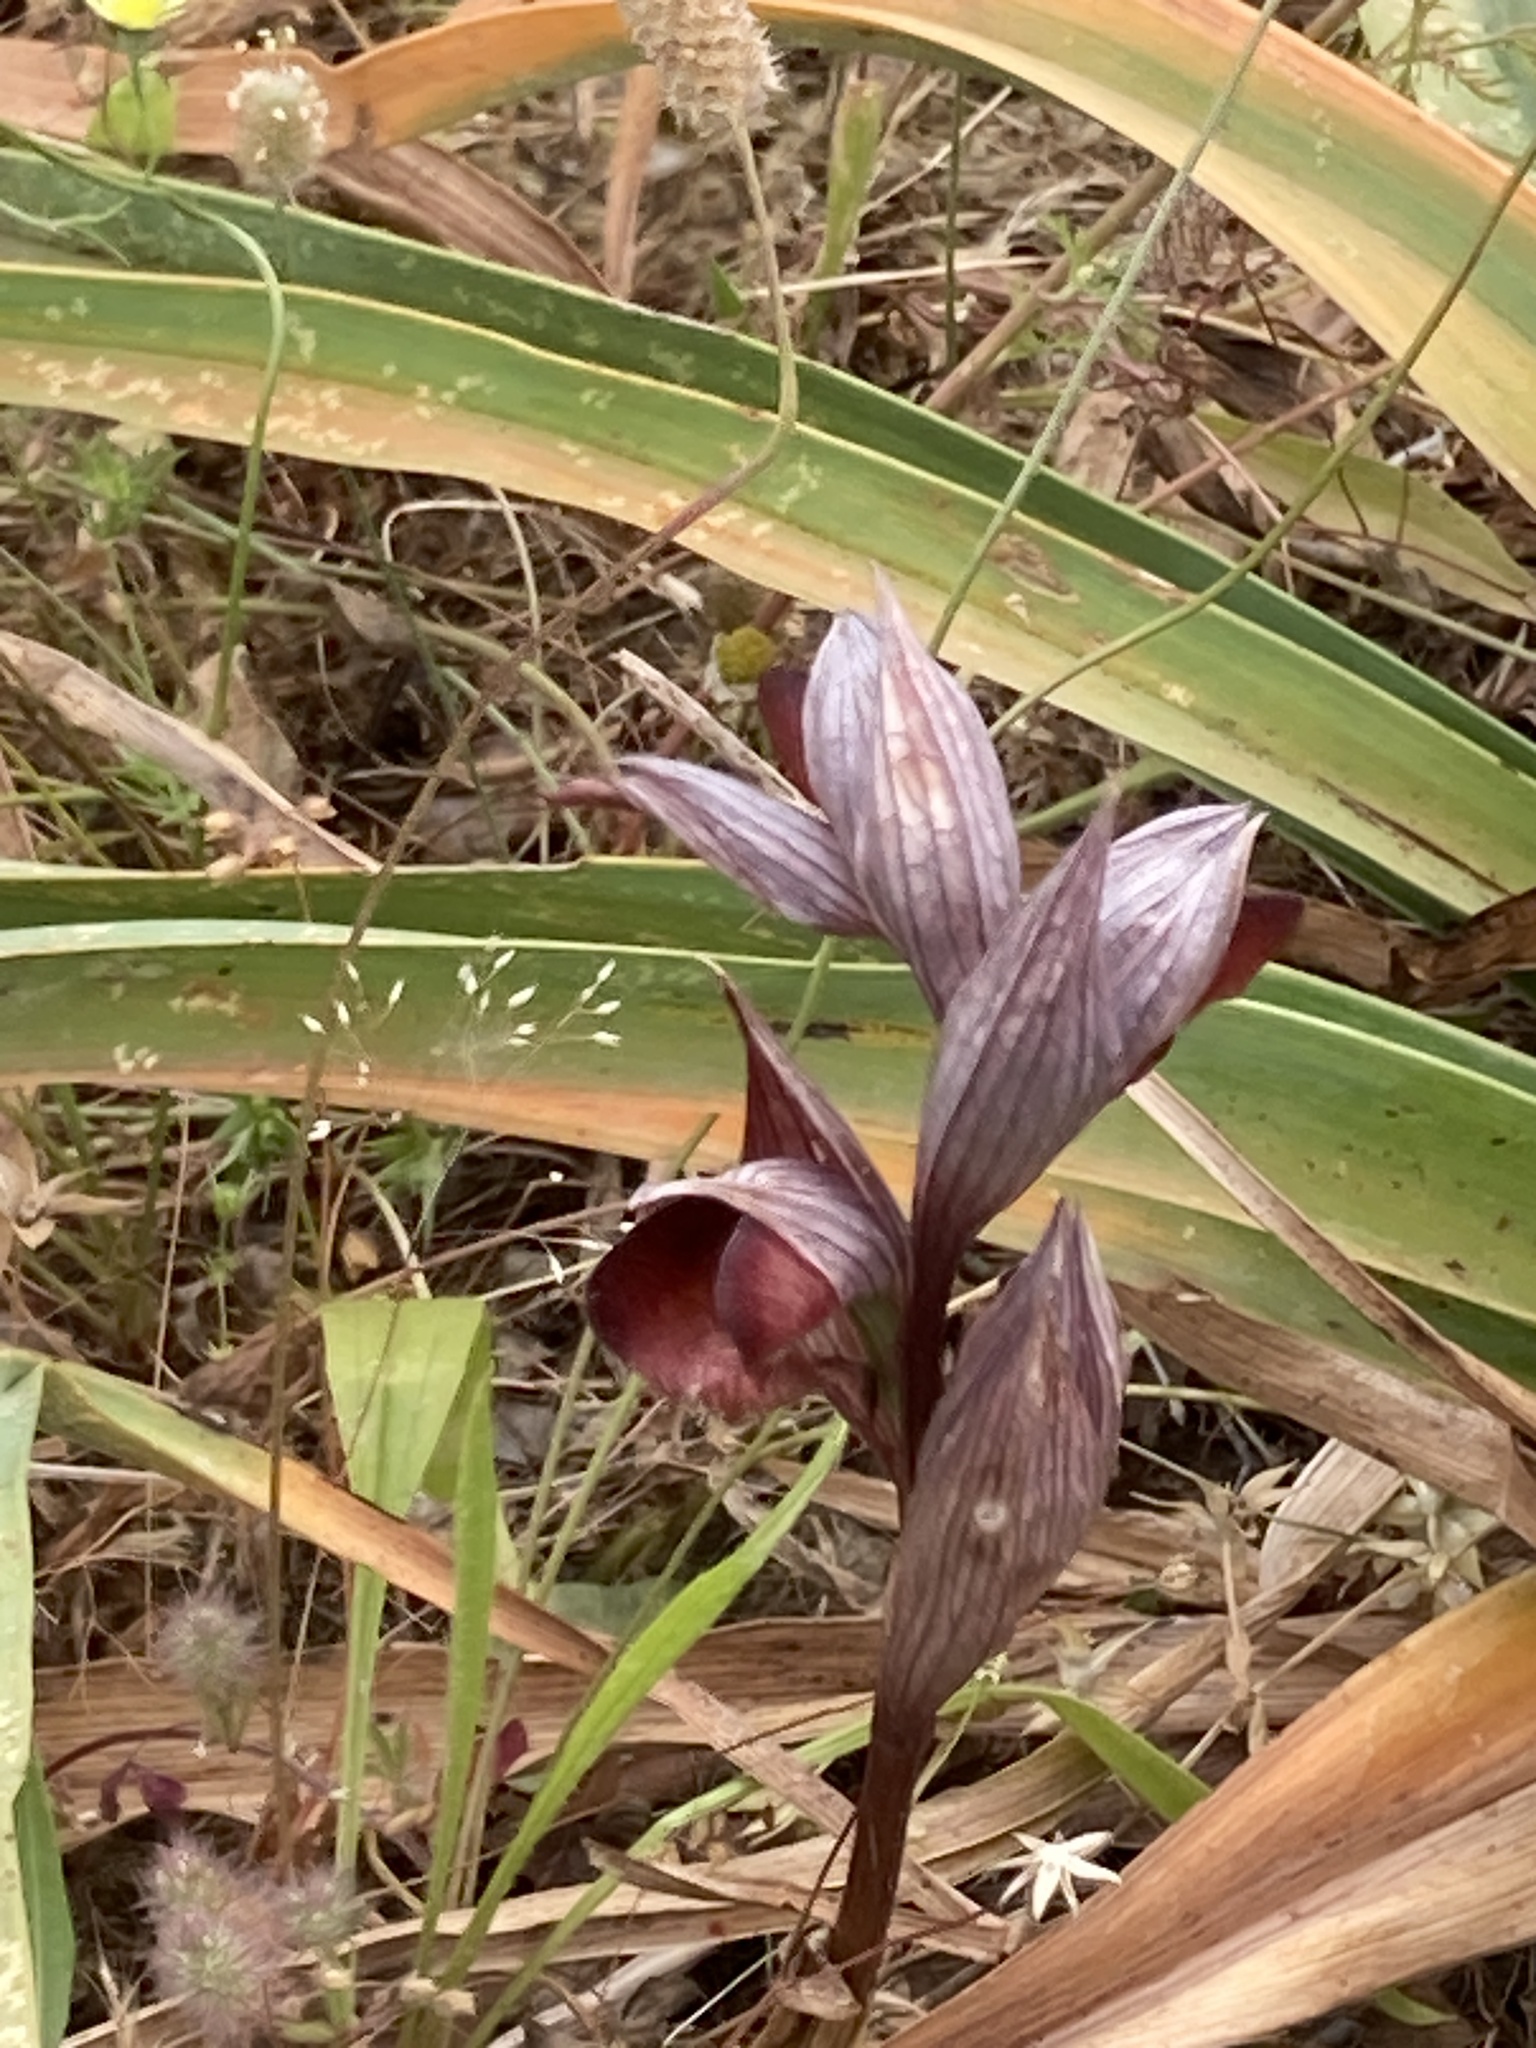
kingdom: Plantae
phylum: Tracheophyta
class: Liliopsida
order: Asparagales
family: Orchidaceae
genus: Serapias
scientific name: Serapias orientalis
